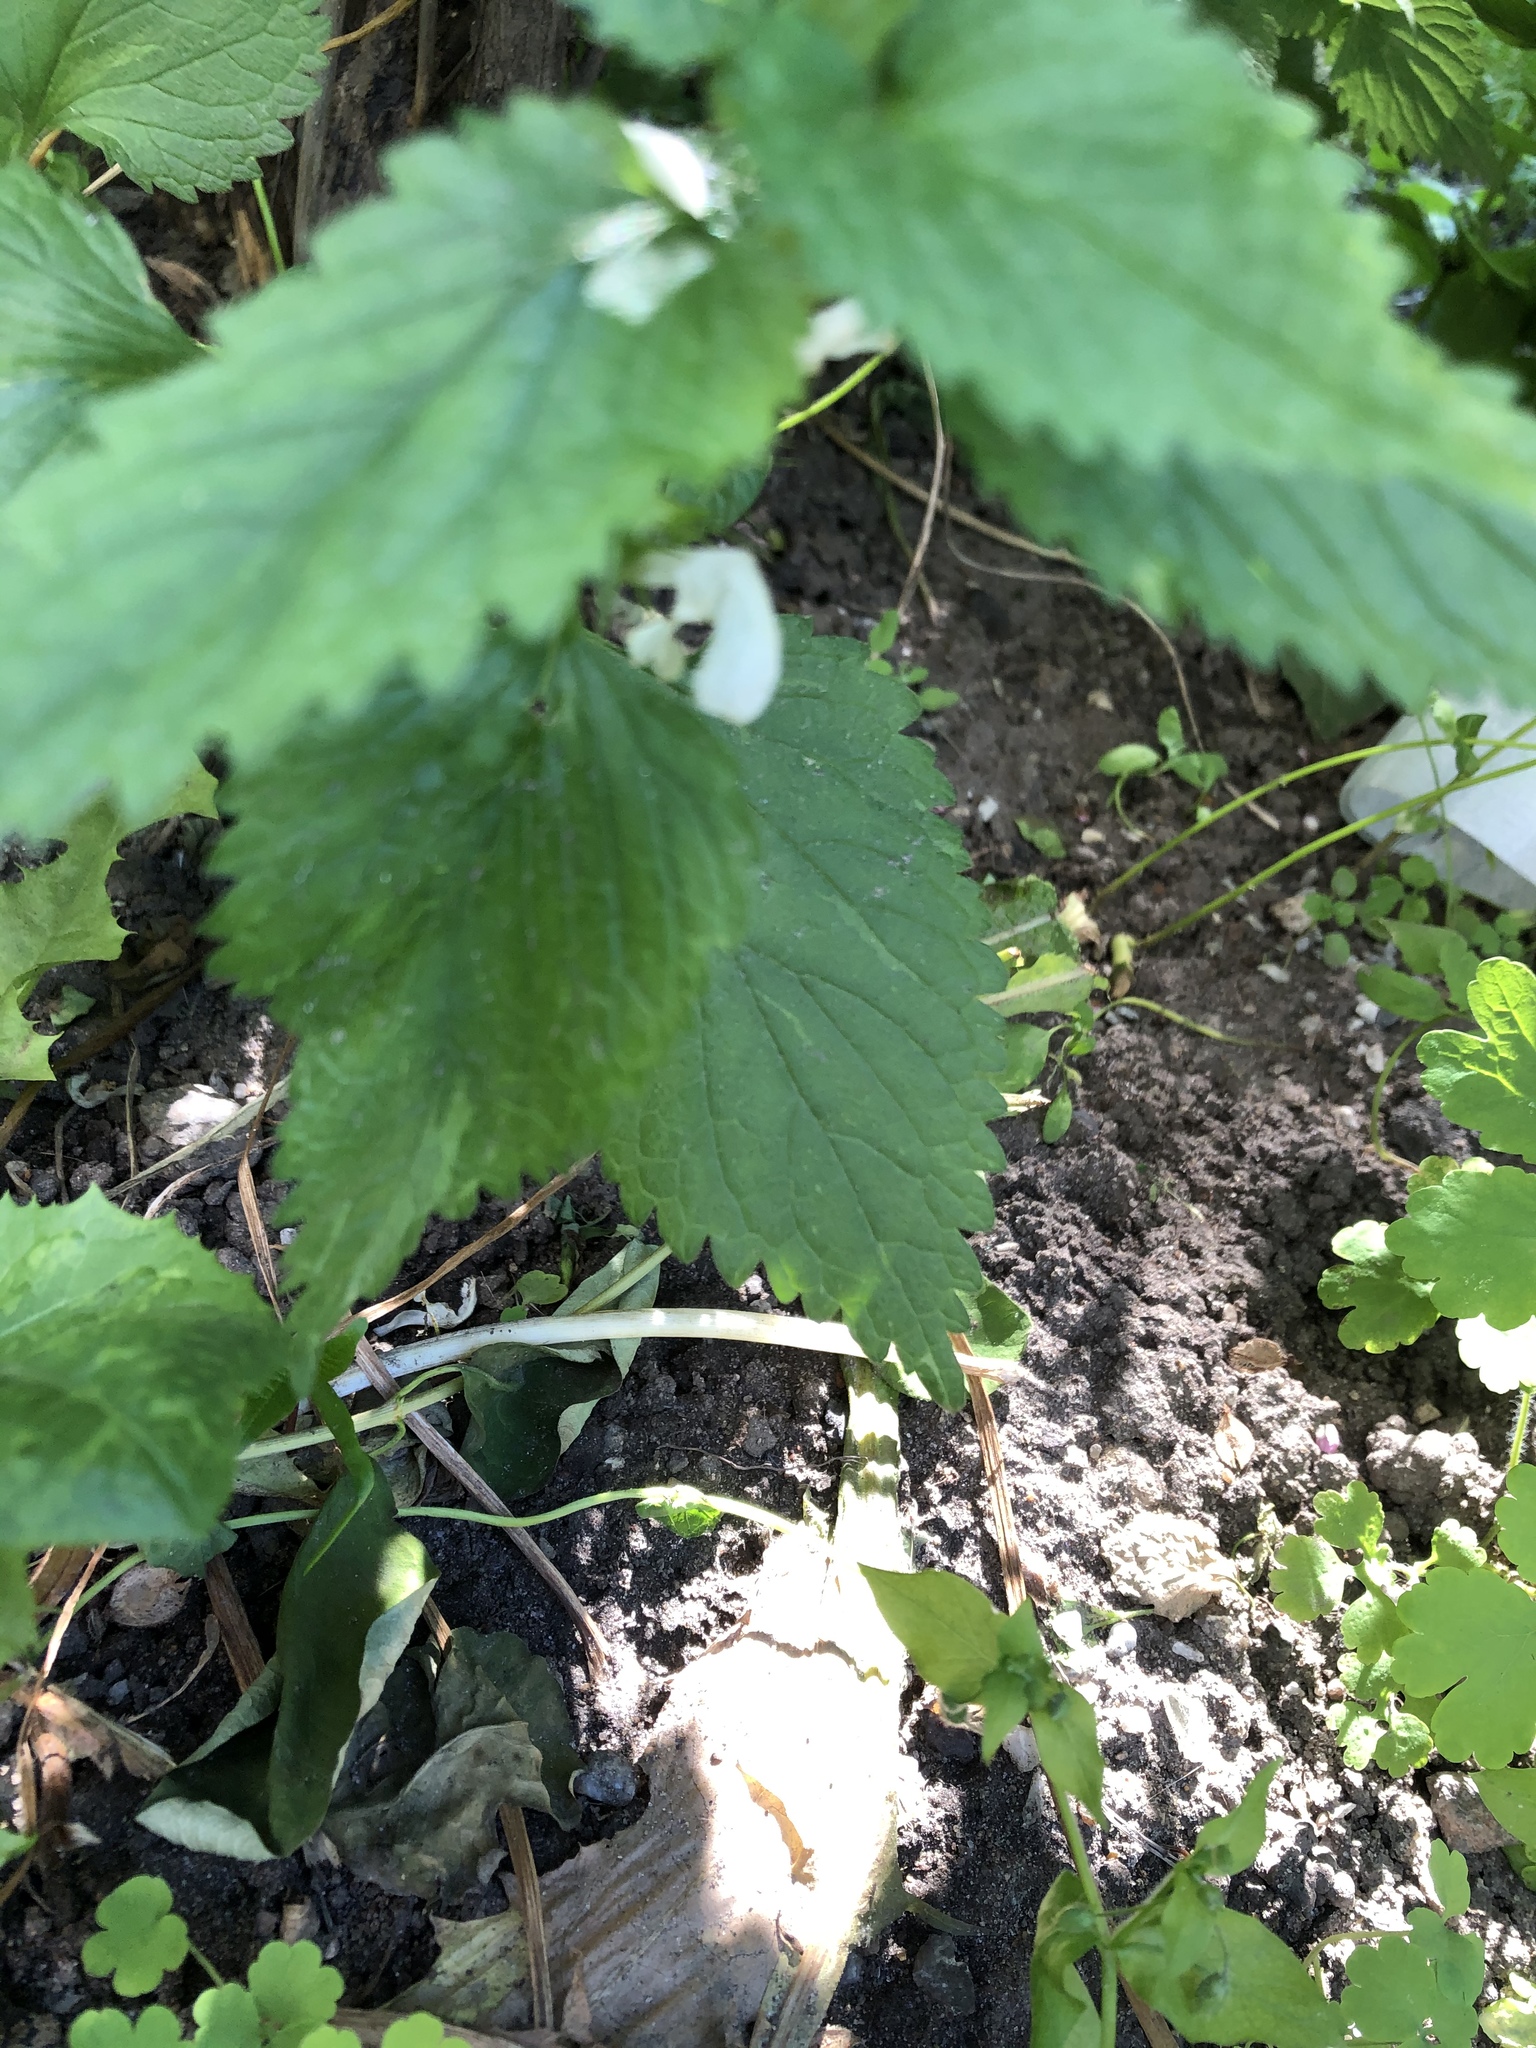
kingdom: Plantae
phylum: Tracheophyta
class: Magnoliopsida
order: Lamiales
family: Lamiaceae
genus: Lamium
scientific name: Lamium album
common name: White dead-nettle
